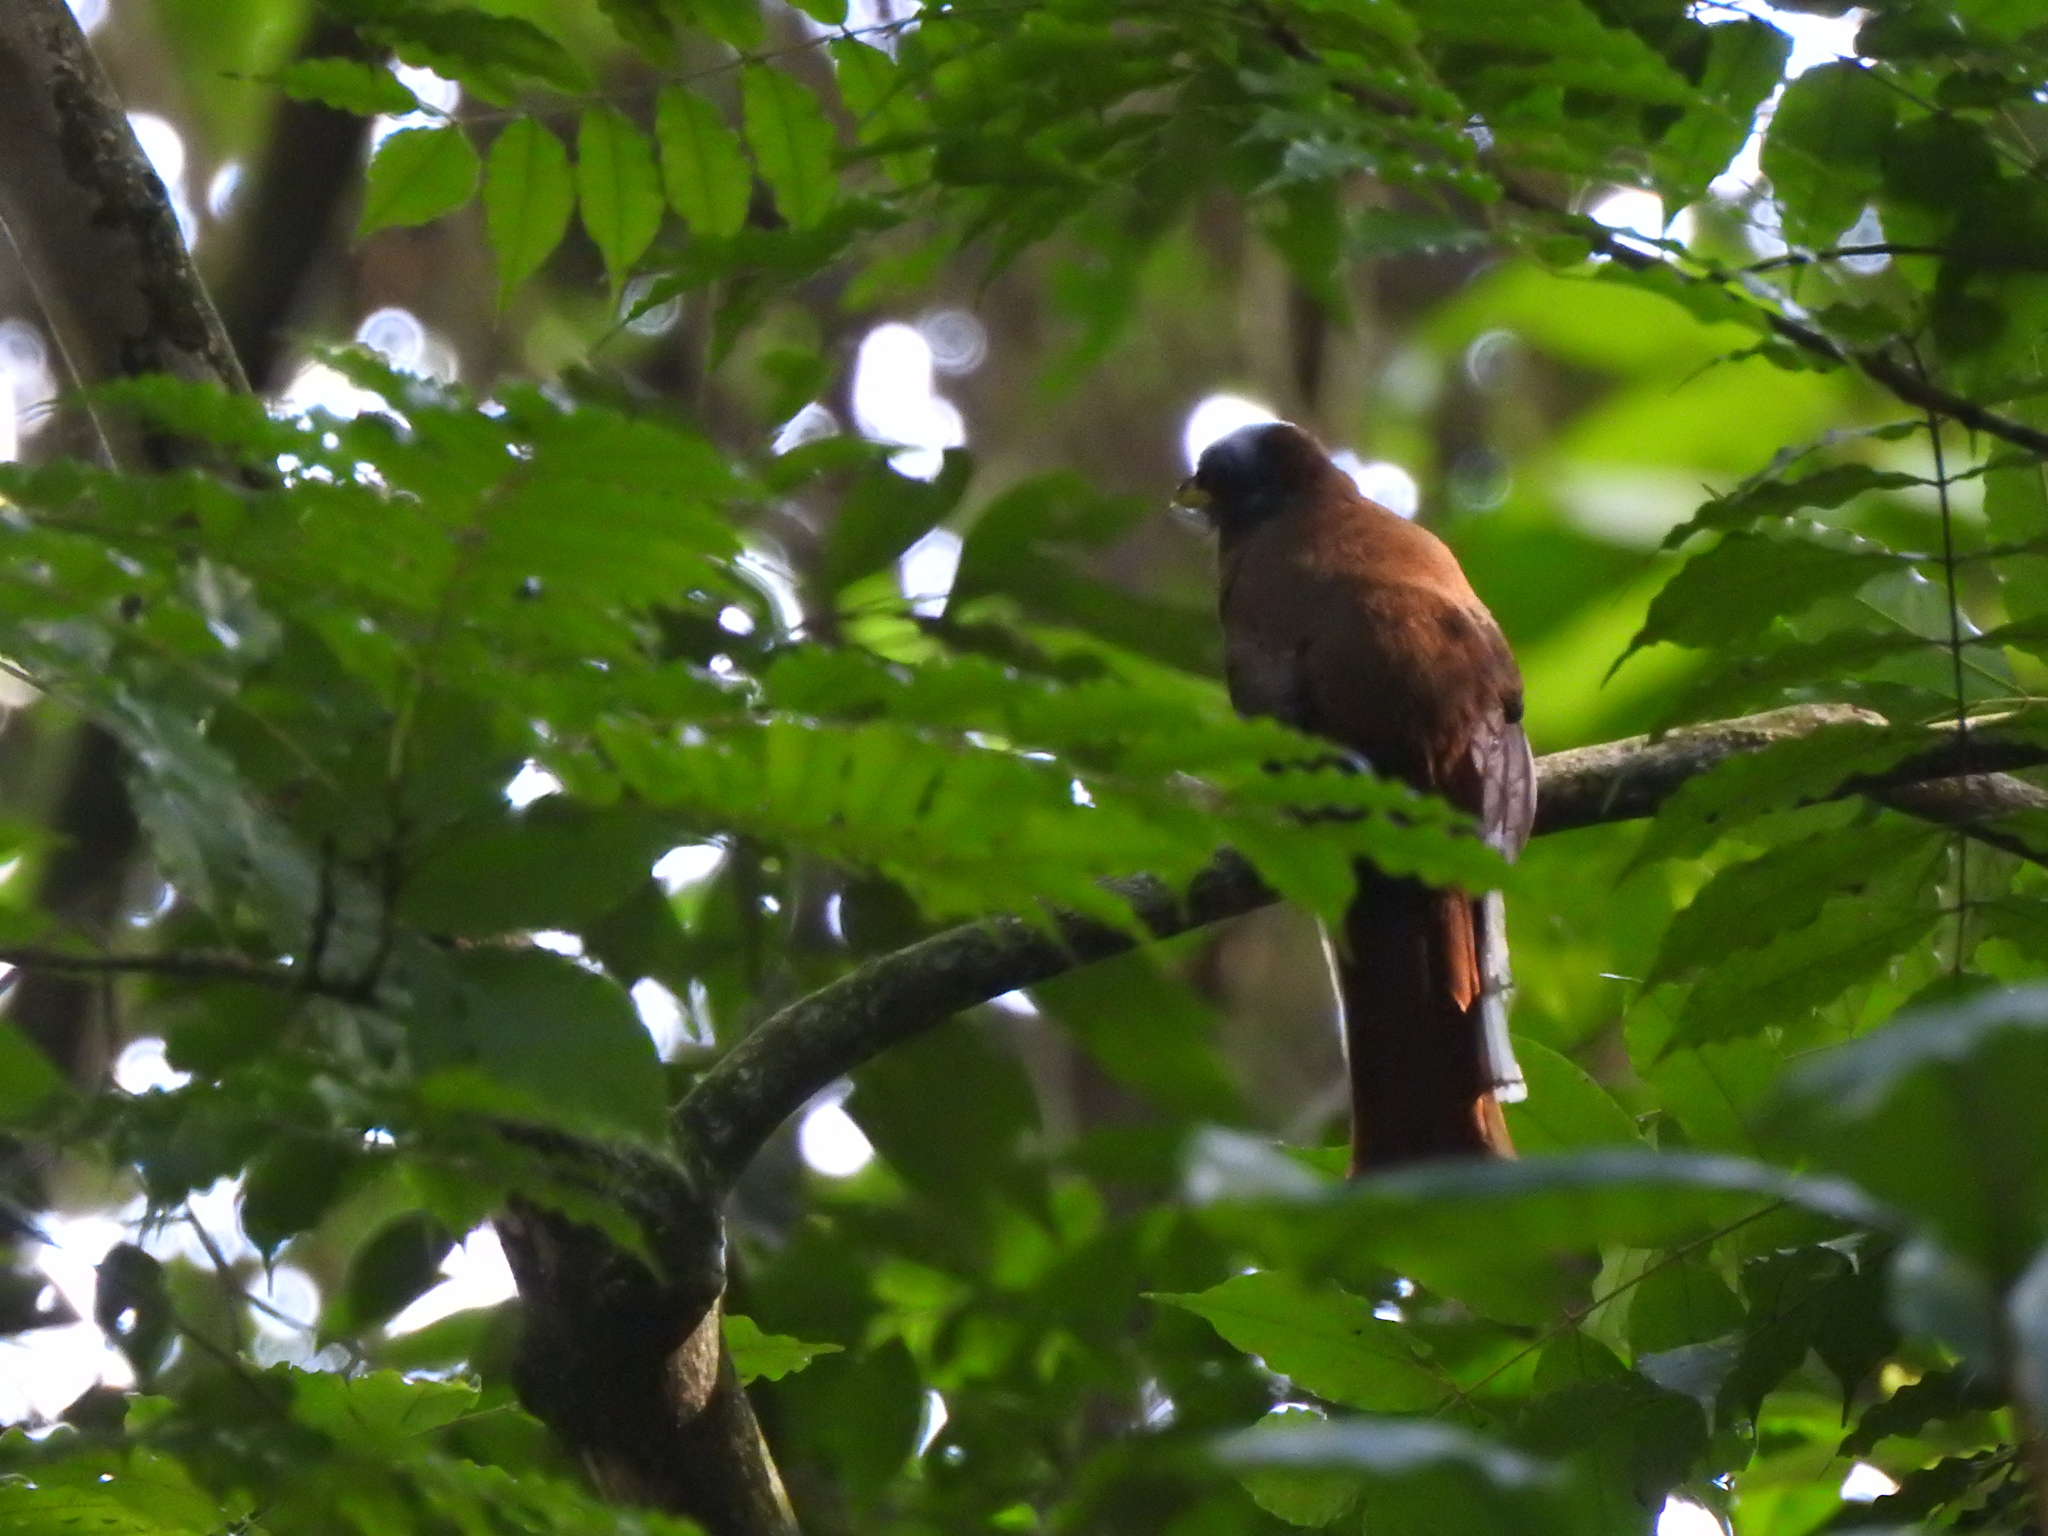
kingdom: Animalia
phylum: Chordata
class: Aves
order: Trogoniformes
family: Trogonidae
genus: Trogon
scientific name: Trogon collaris
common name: Collared trogon
